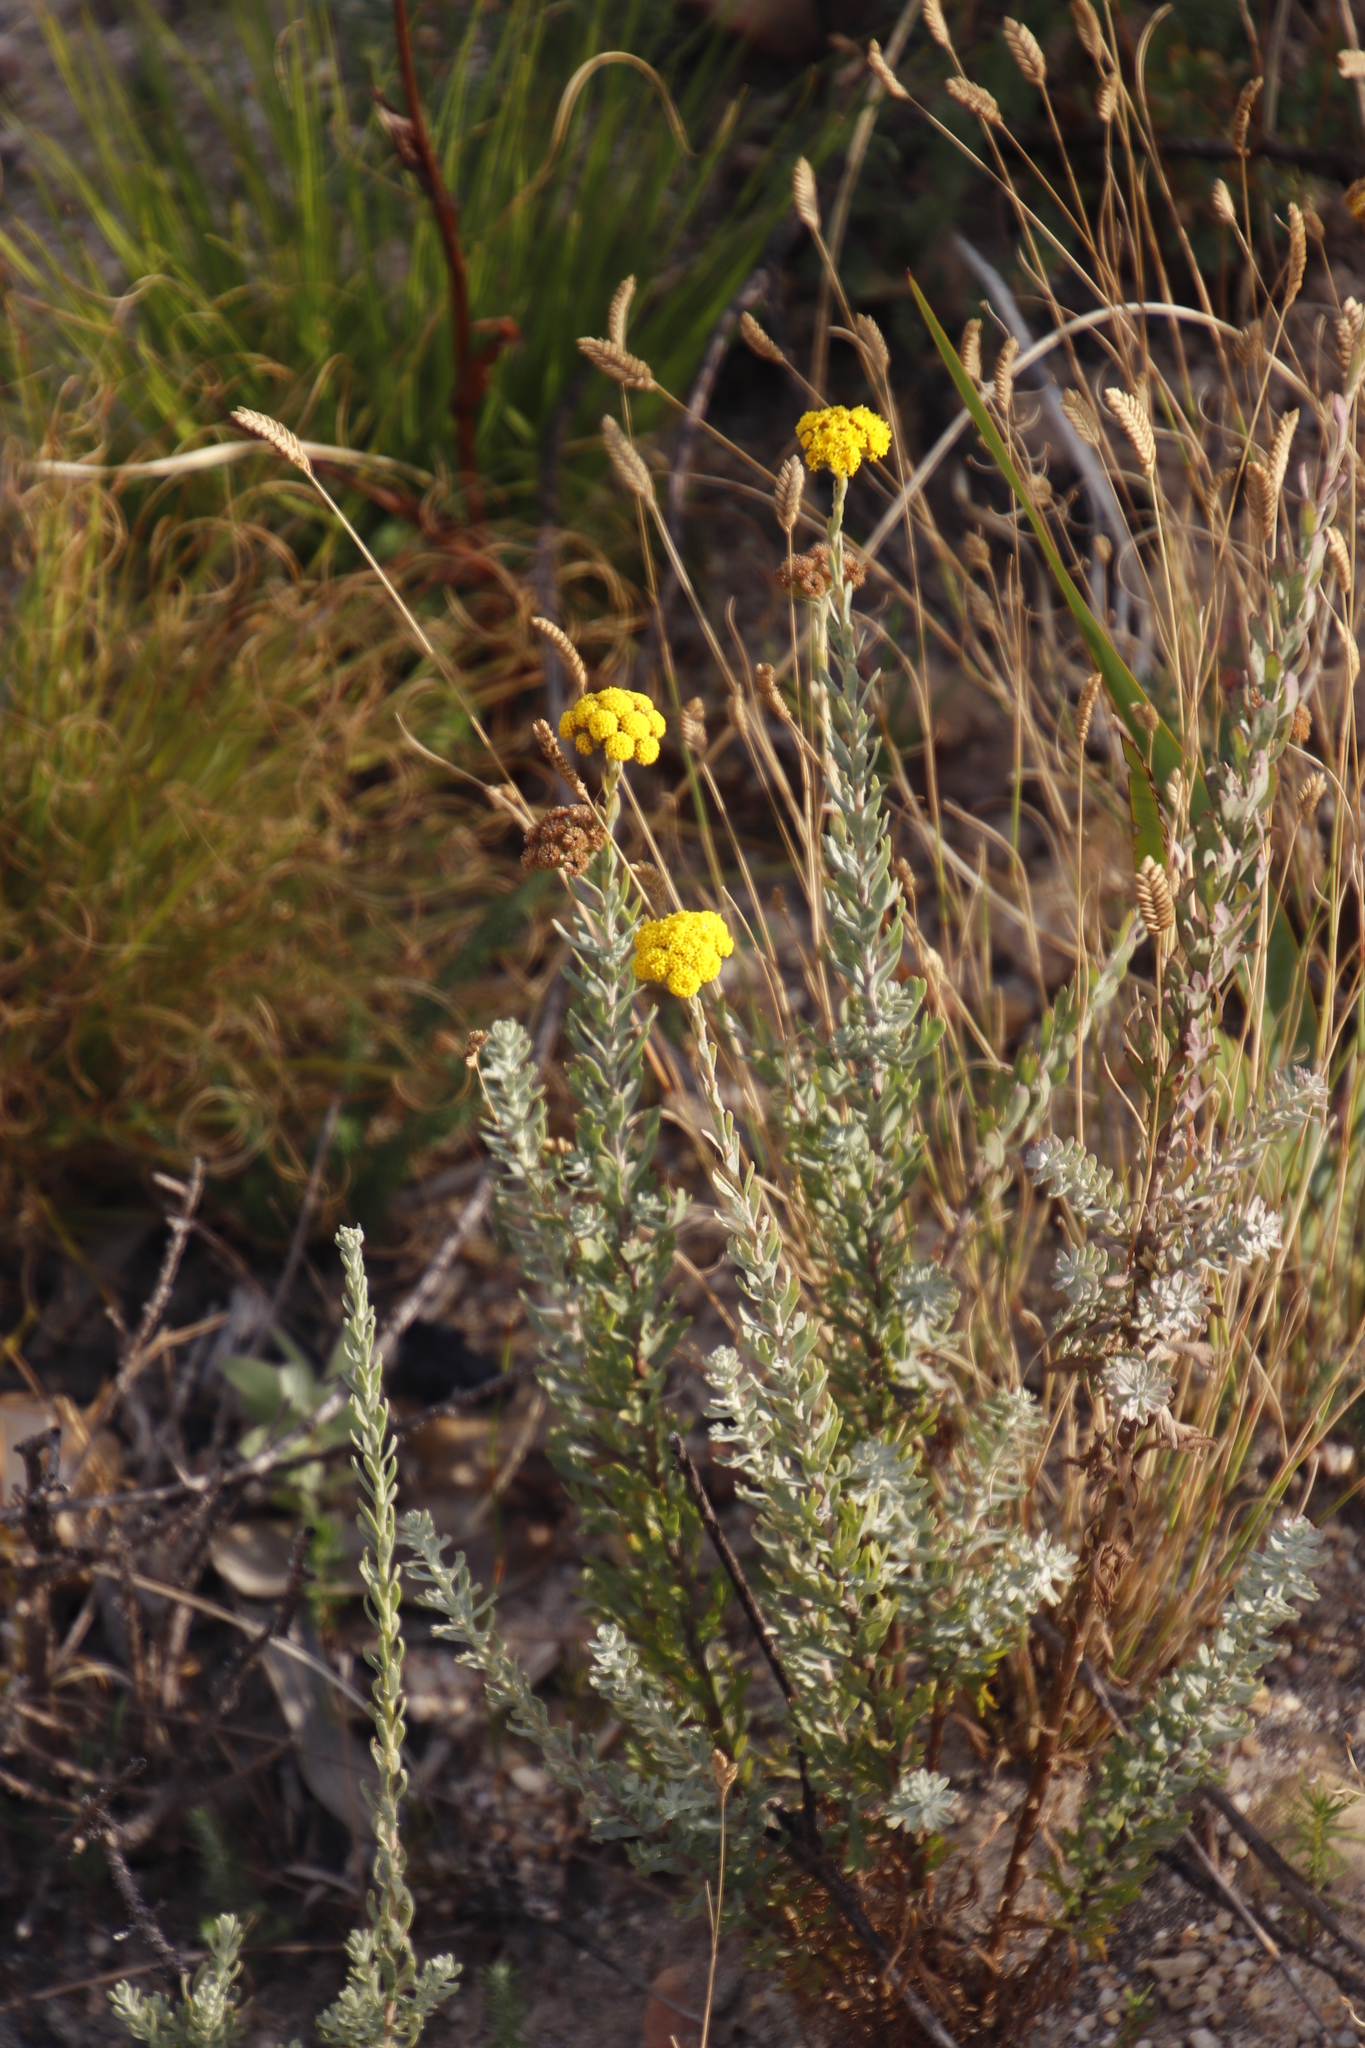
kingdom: Plantae
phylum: Tracheophyta
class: Magnoliopsida
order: Asterales
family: Asteraceae
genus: Athanasia
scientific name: Athanasia trifurcata
